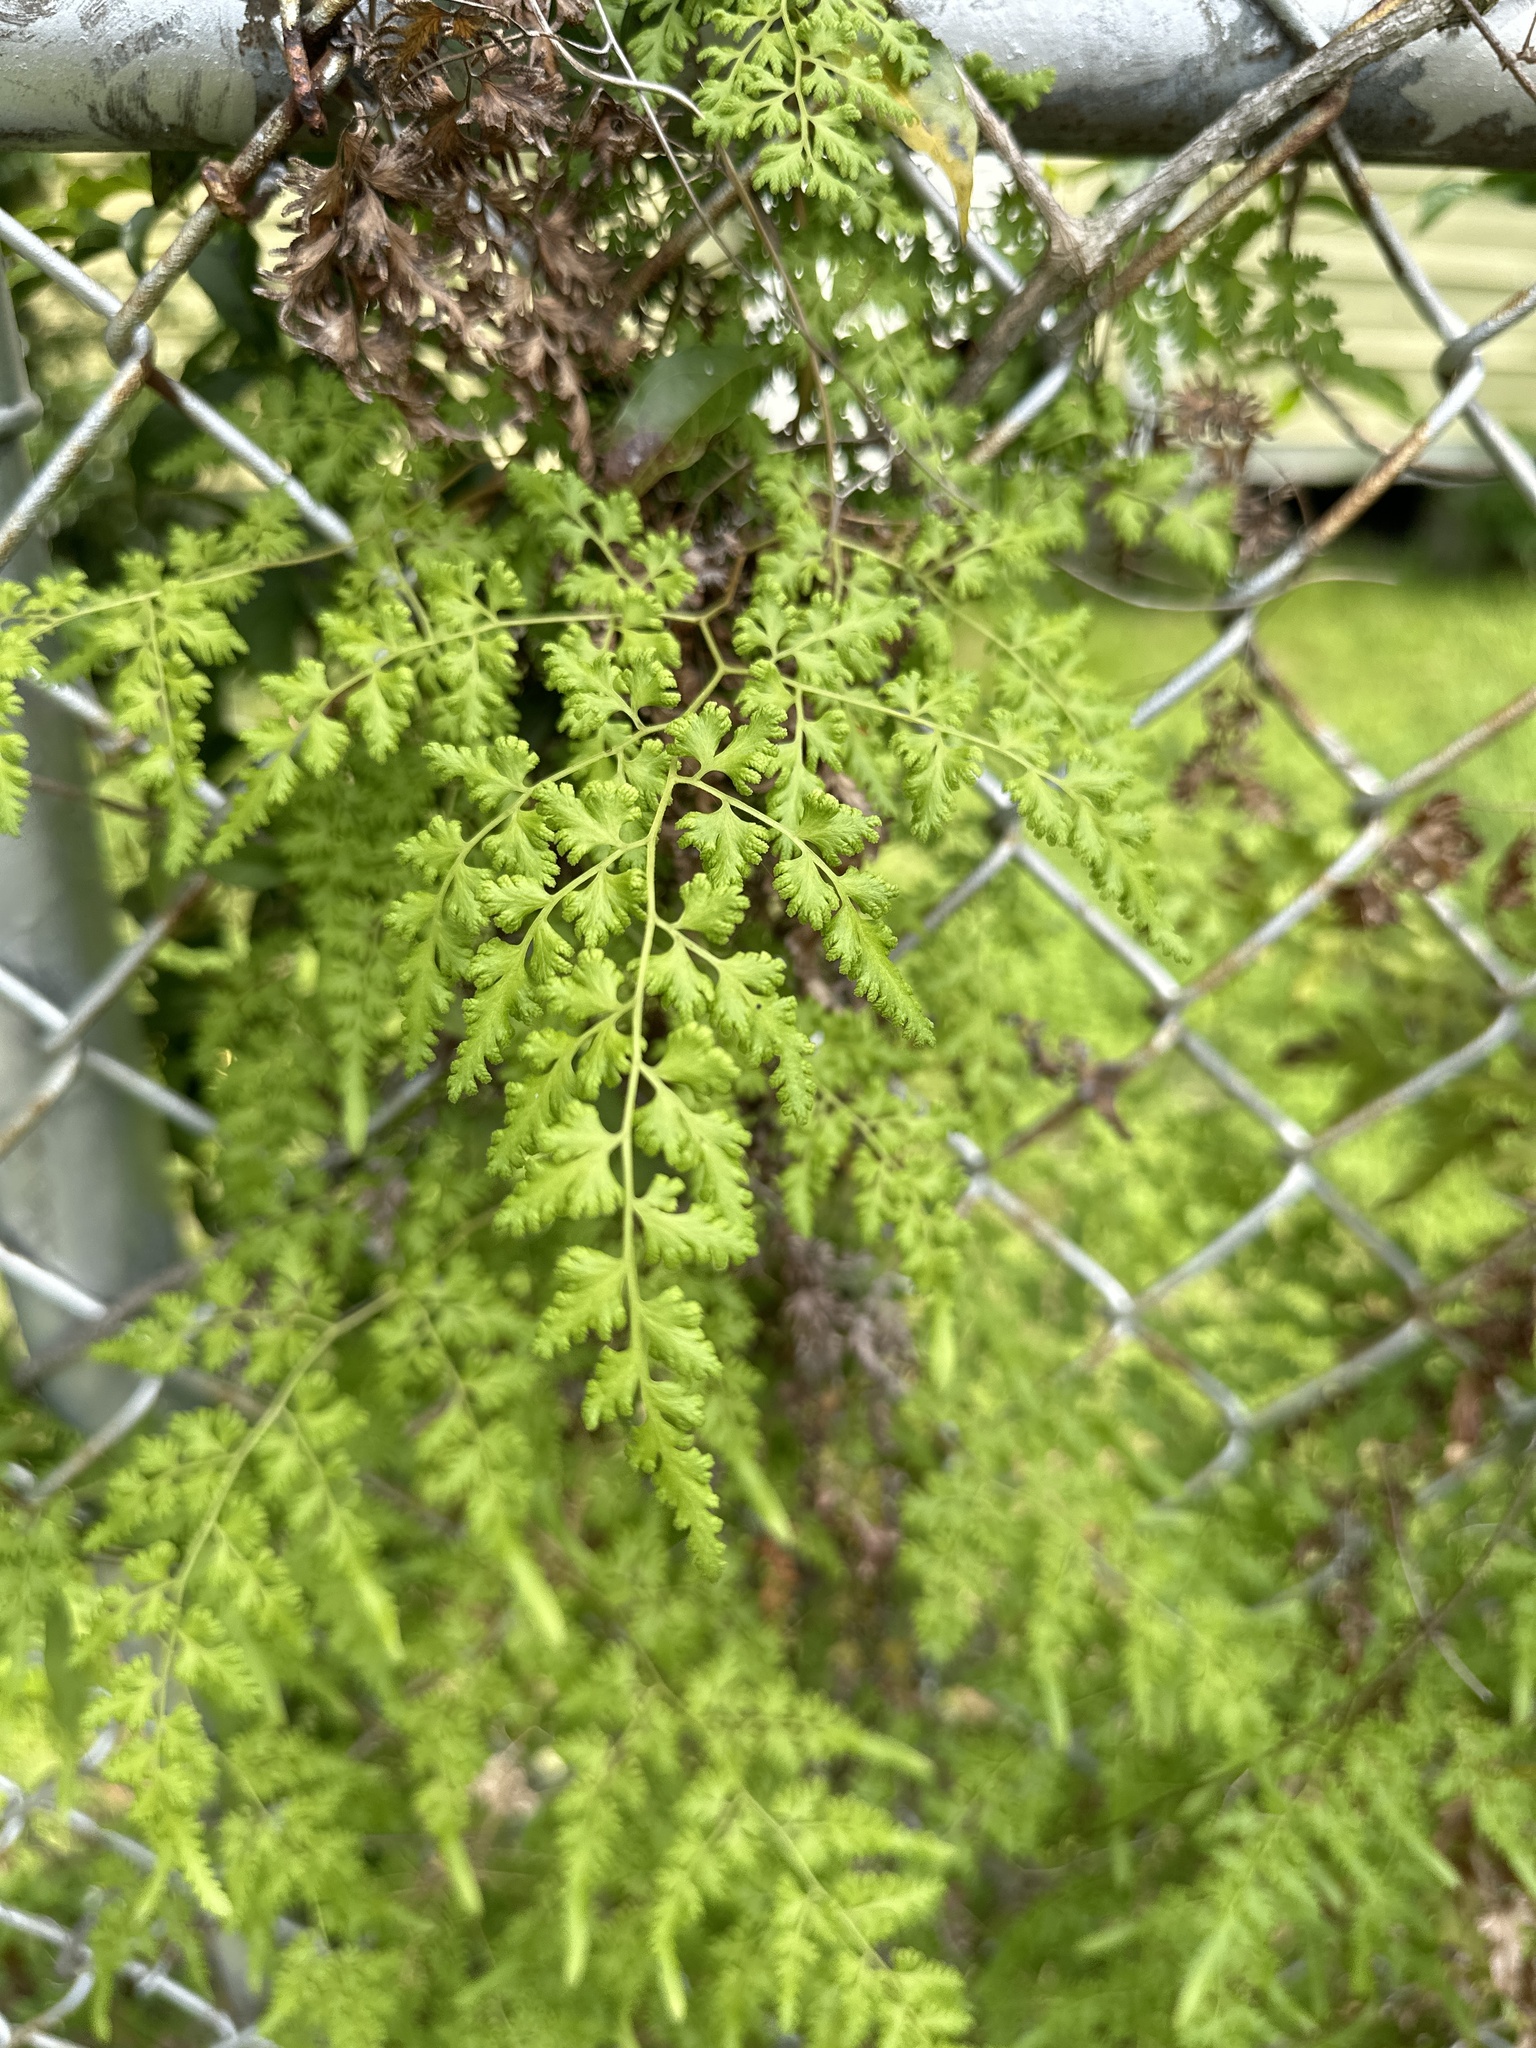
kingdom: Plantae
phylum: Tracheophyta
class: Polypodiopsida
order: Schizaeales
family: Lygodiaceae
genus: Lygodium
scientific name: Lygodium japonicum
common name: Japanese climbing fern
